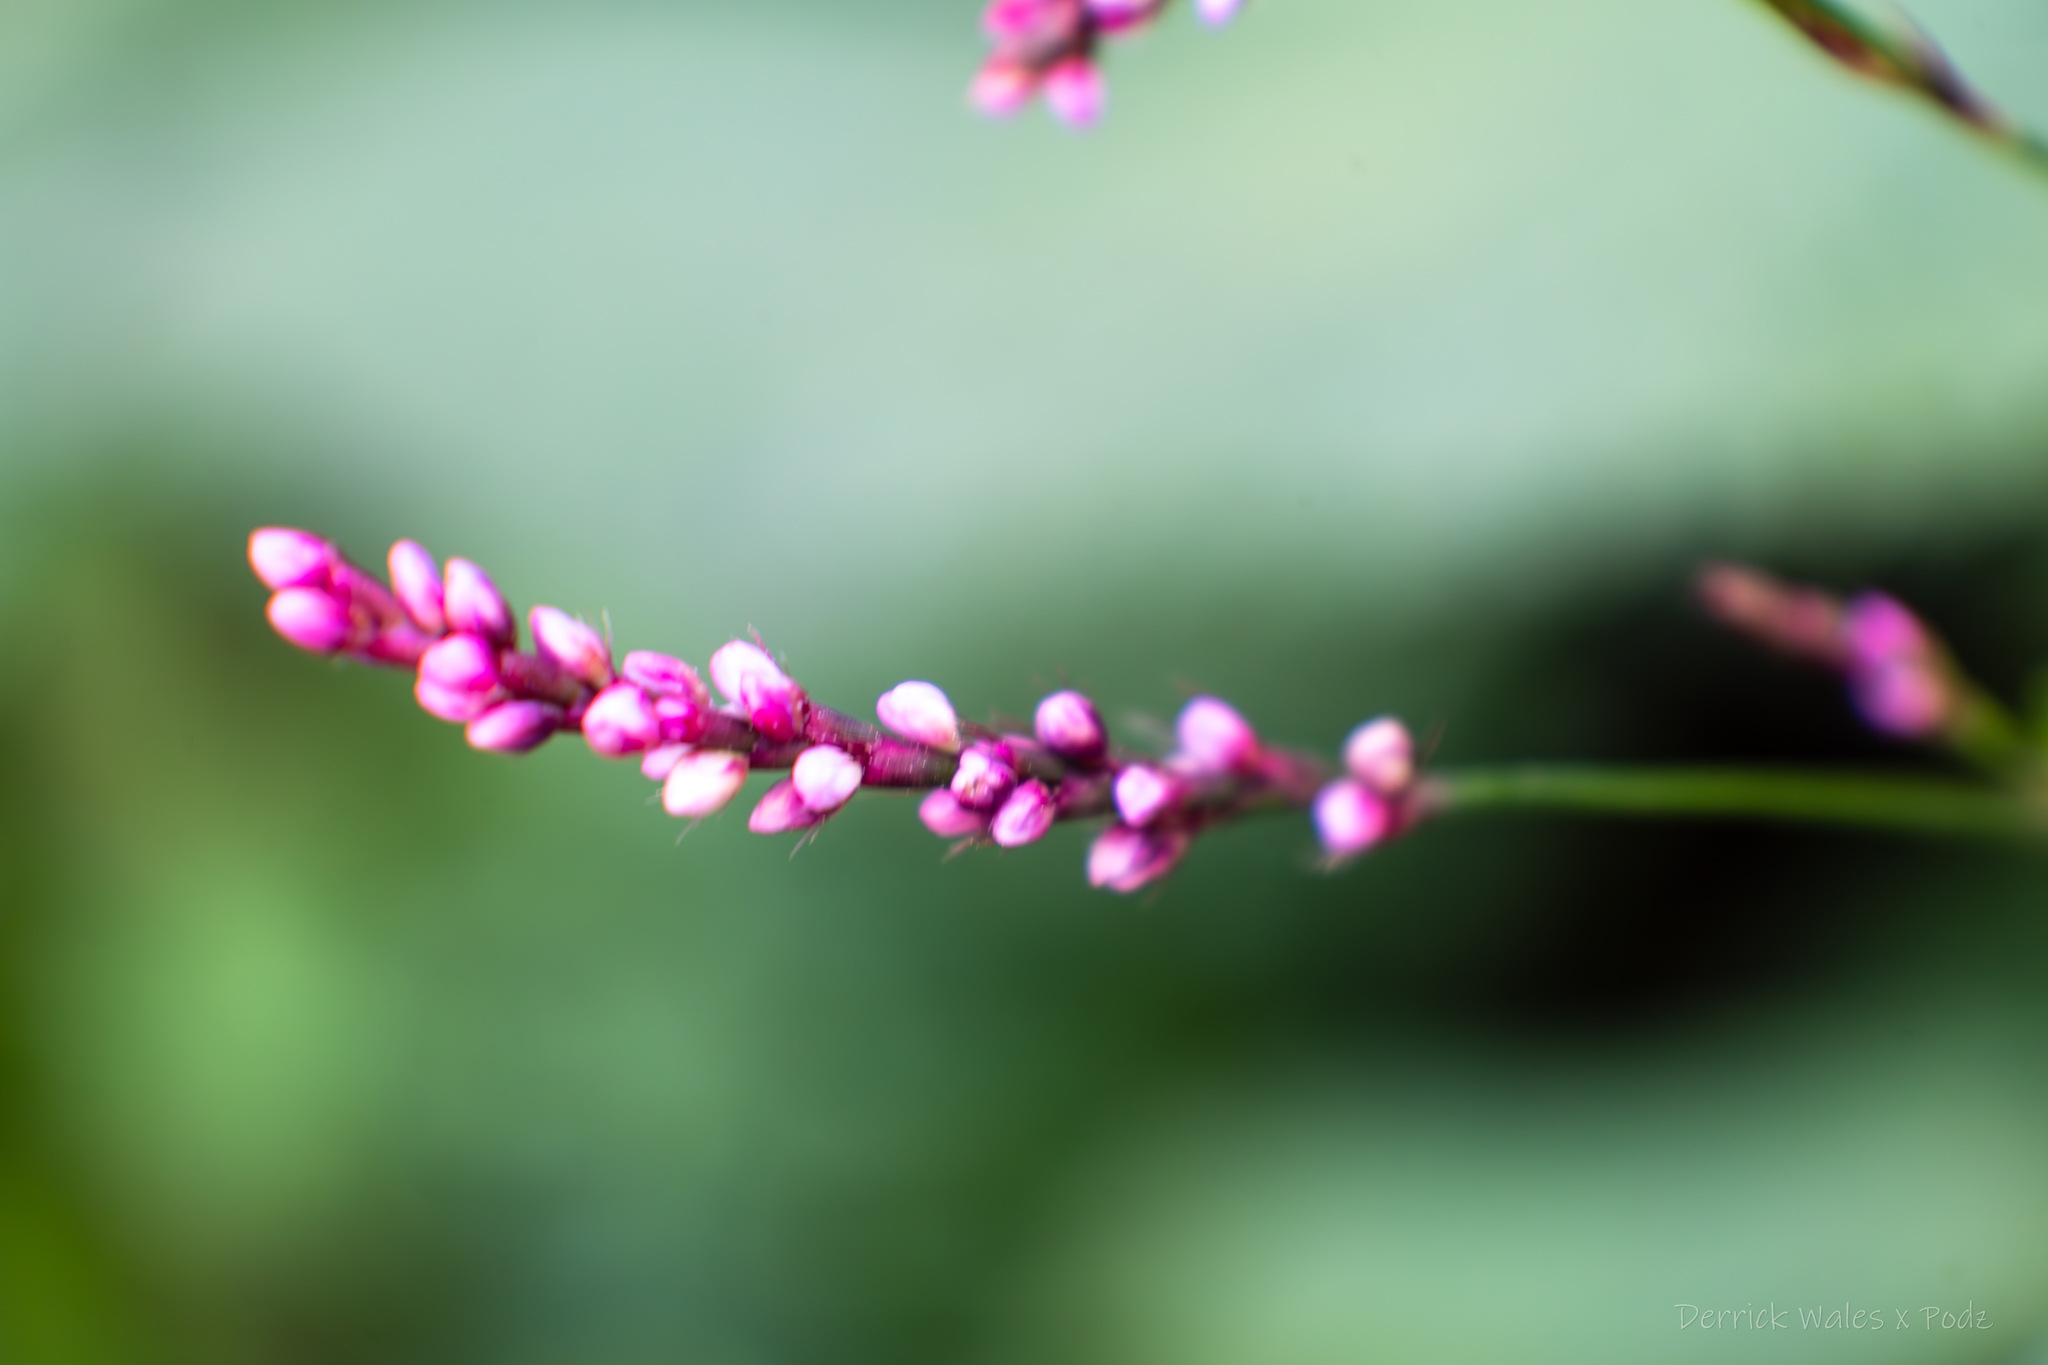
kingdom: Plantae
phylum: Tracheophyta
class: Magnoliopsida
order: Caryophyllales
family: Polygonaceae
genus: Persicaria
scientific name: Persicaria longiseta
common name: Bristly lady's-thumb
